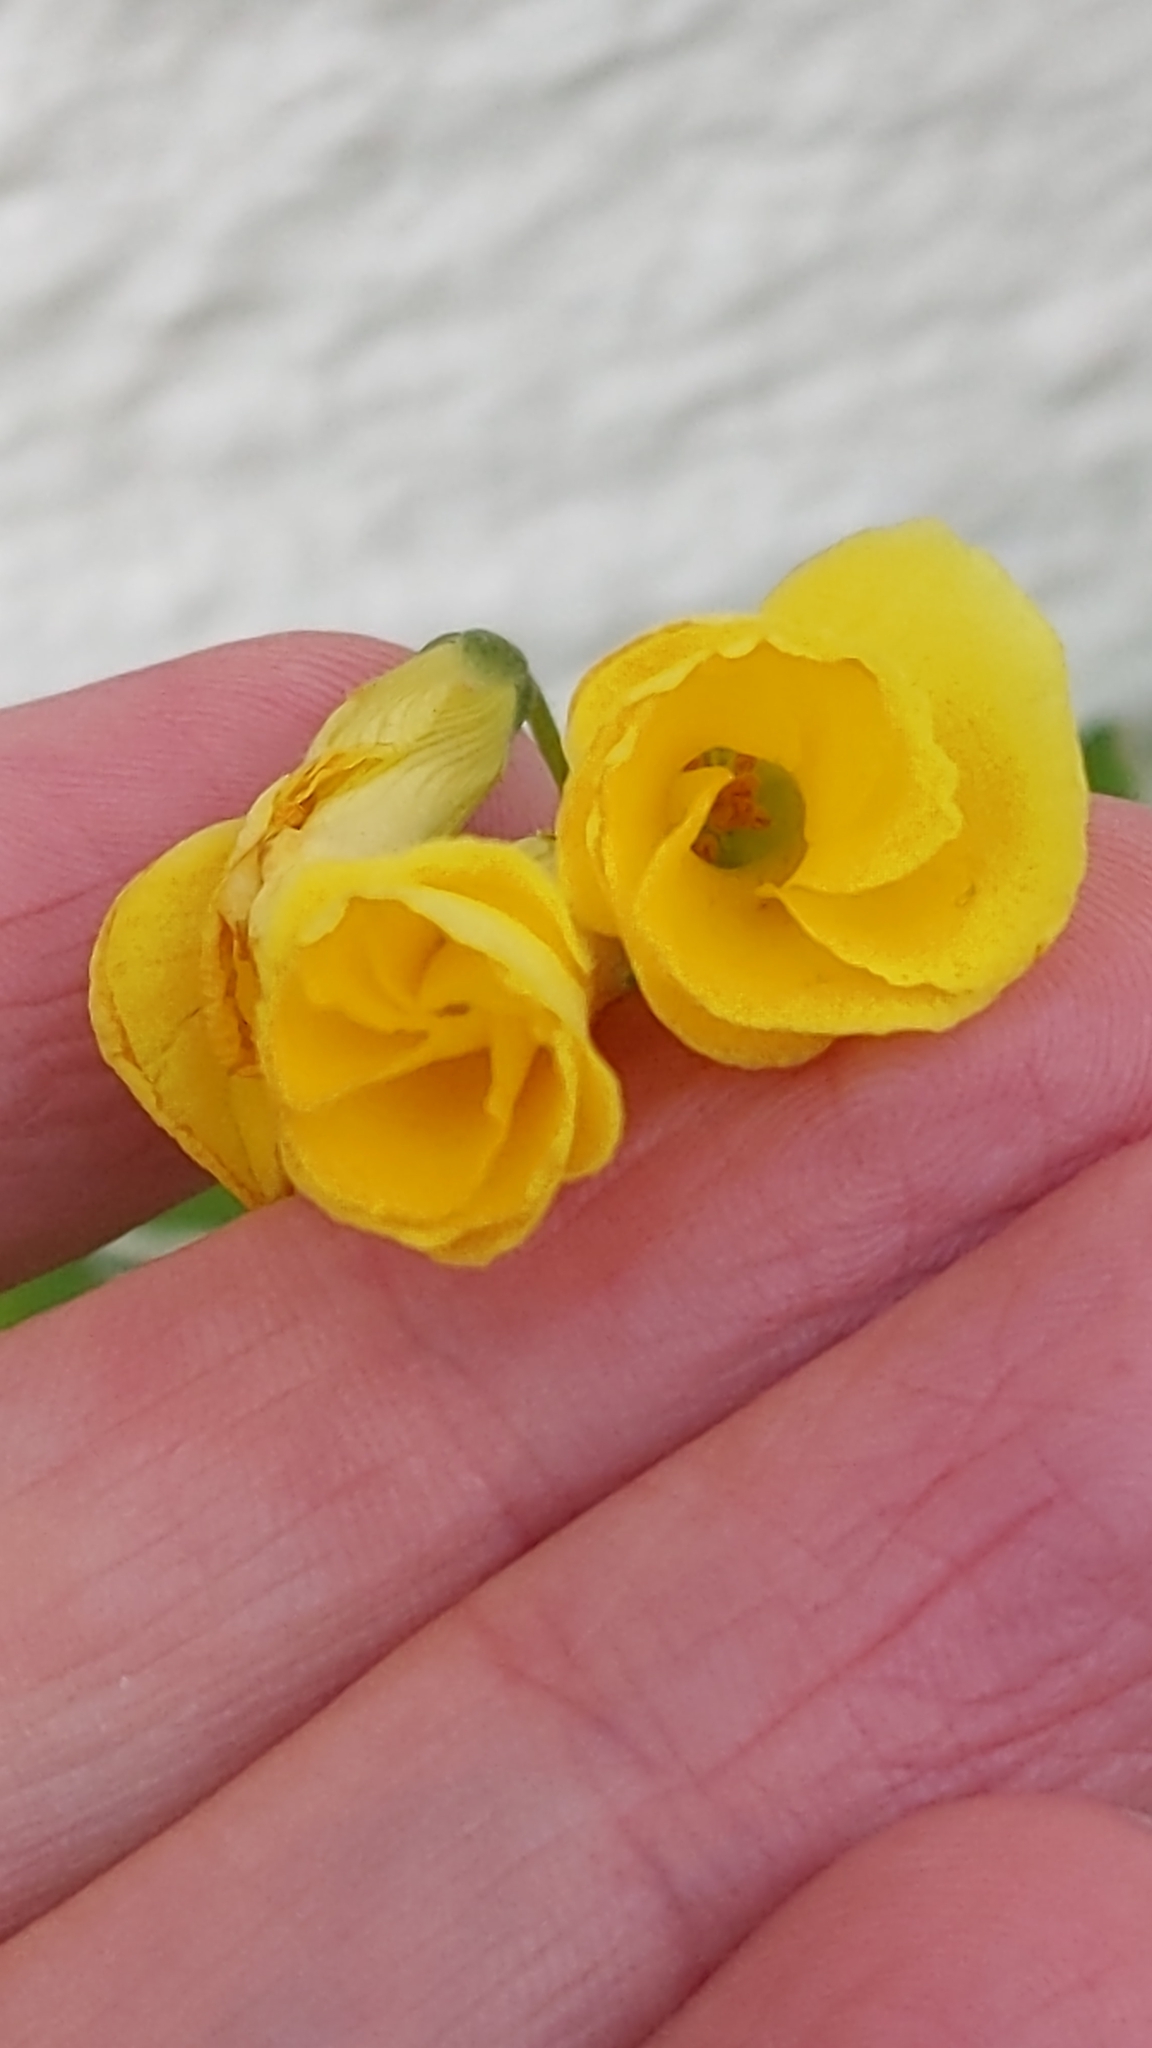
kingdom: Plantae
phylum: Tracheophyta
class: Magnoliopsida
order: Oxalidales
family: Oxalidaceae
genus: Oxalis
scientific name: Oxalis pes-caprae
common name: Bermuda-buttercup
